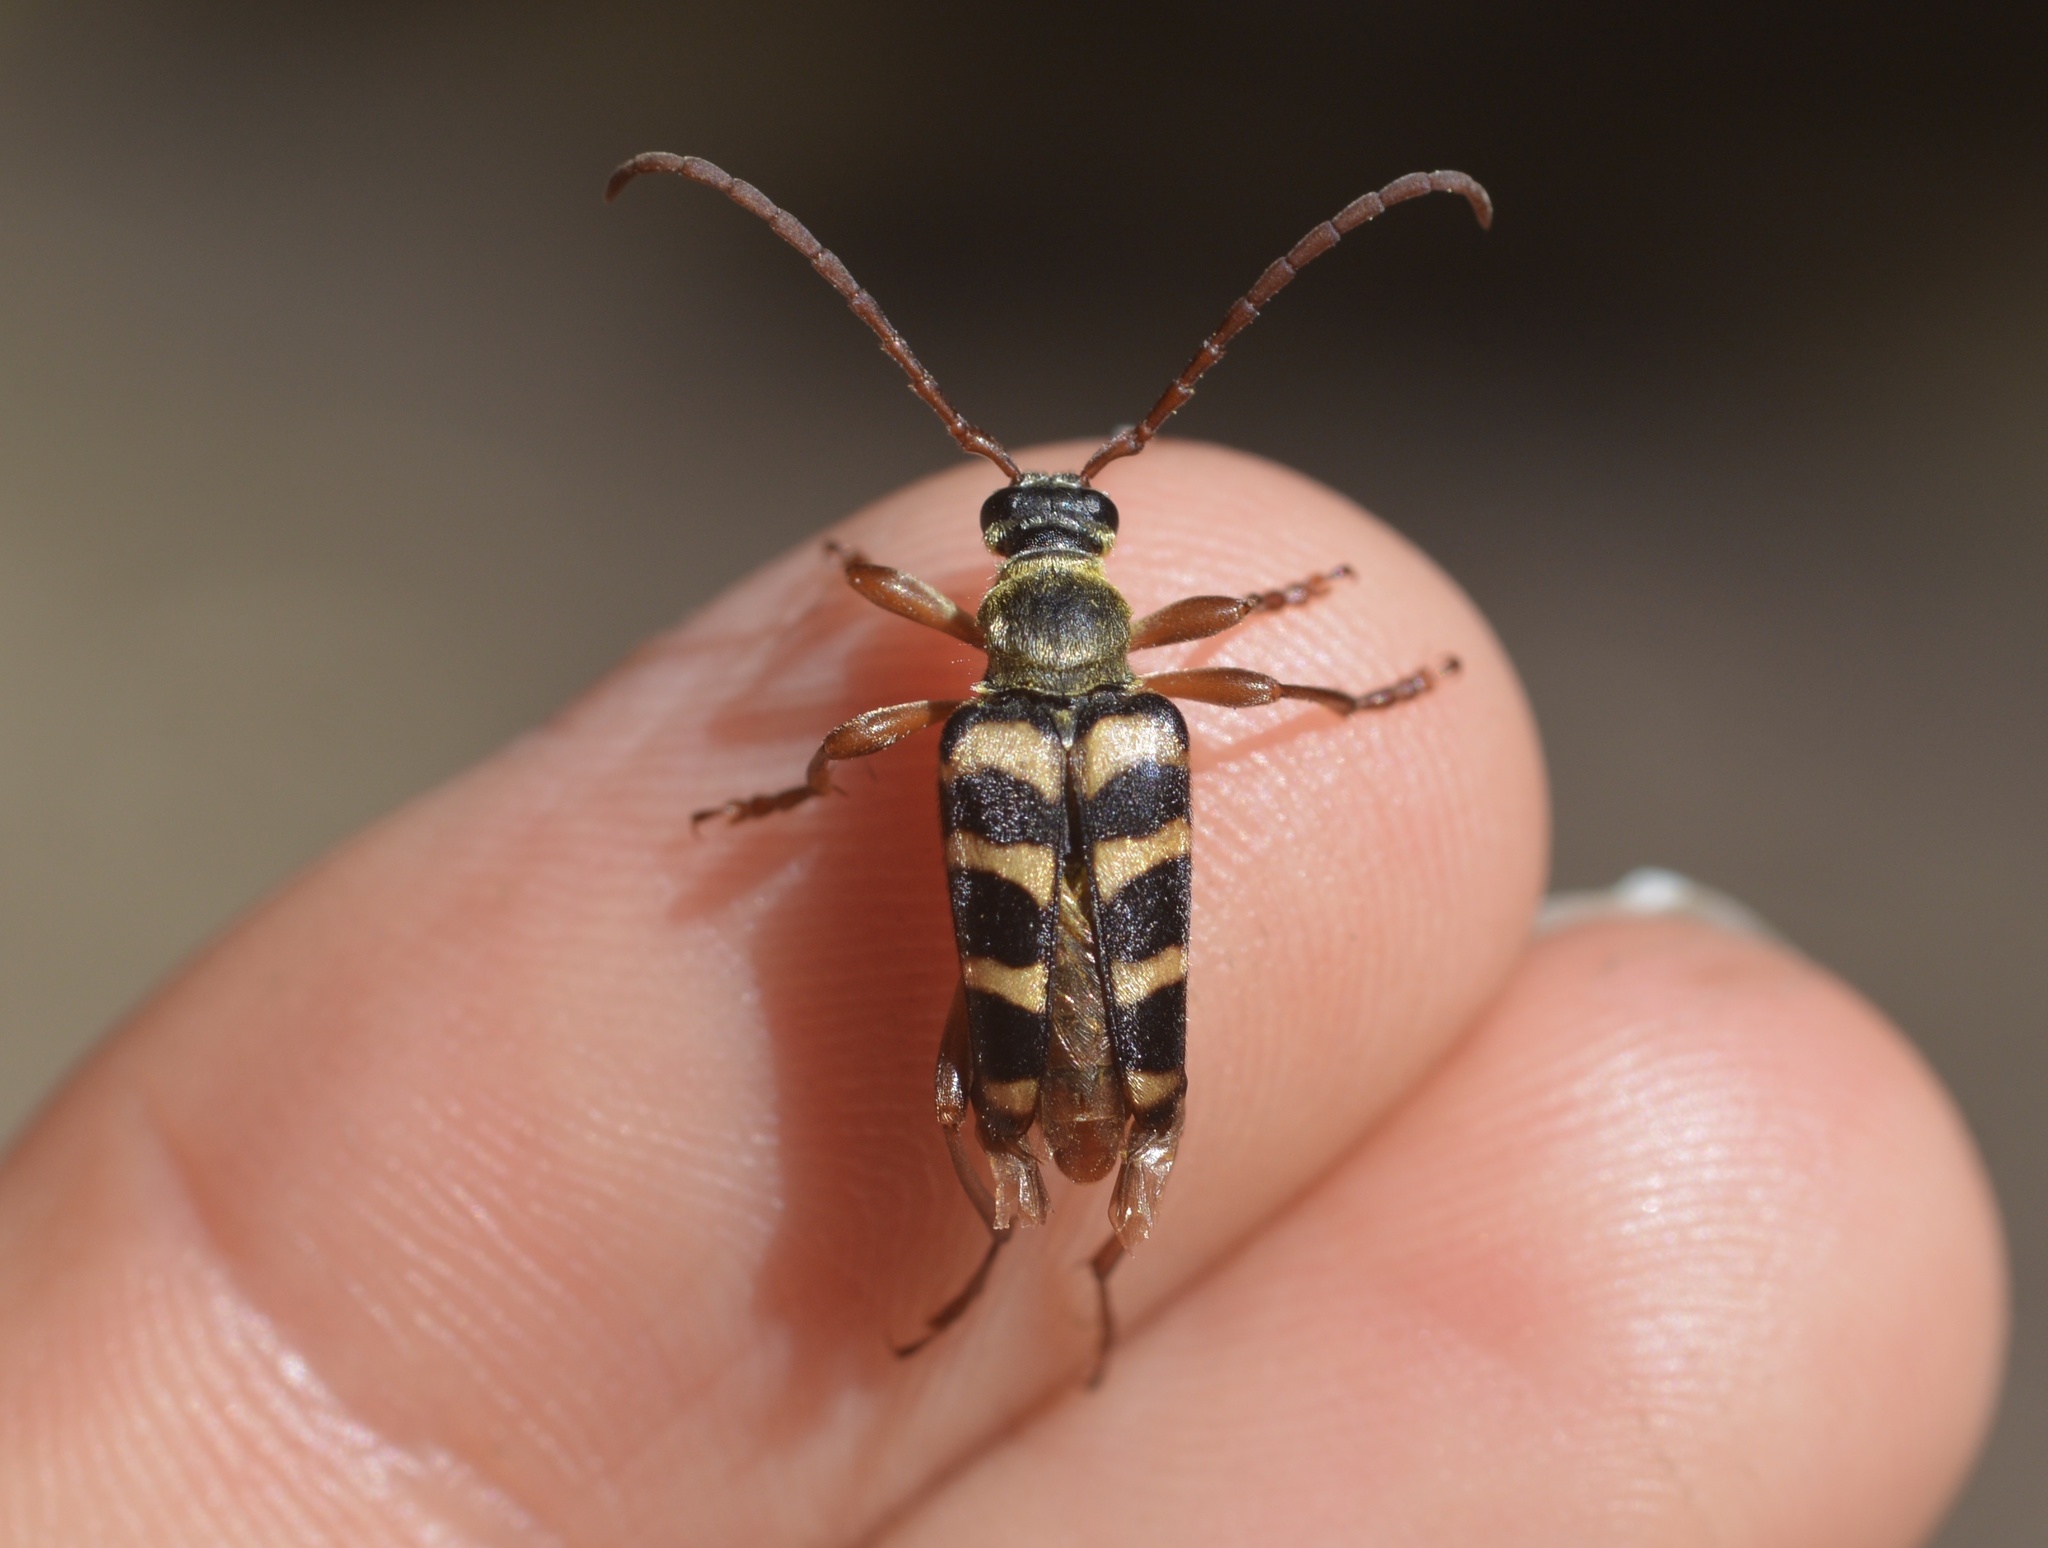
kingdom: Animalia
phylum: Arthropoda
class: Insecta
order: Coleoptera
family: Cerambycidae
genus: Strophiona
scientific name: Strophiona tigrina
